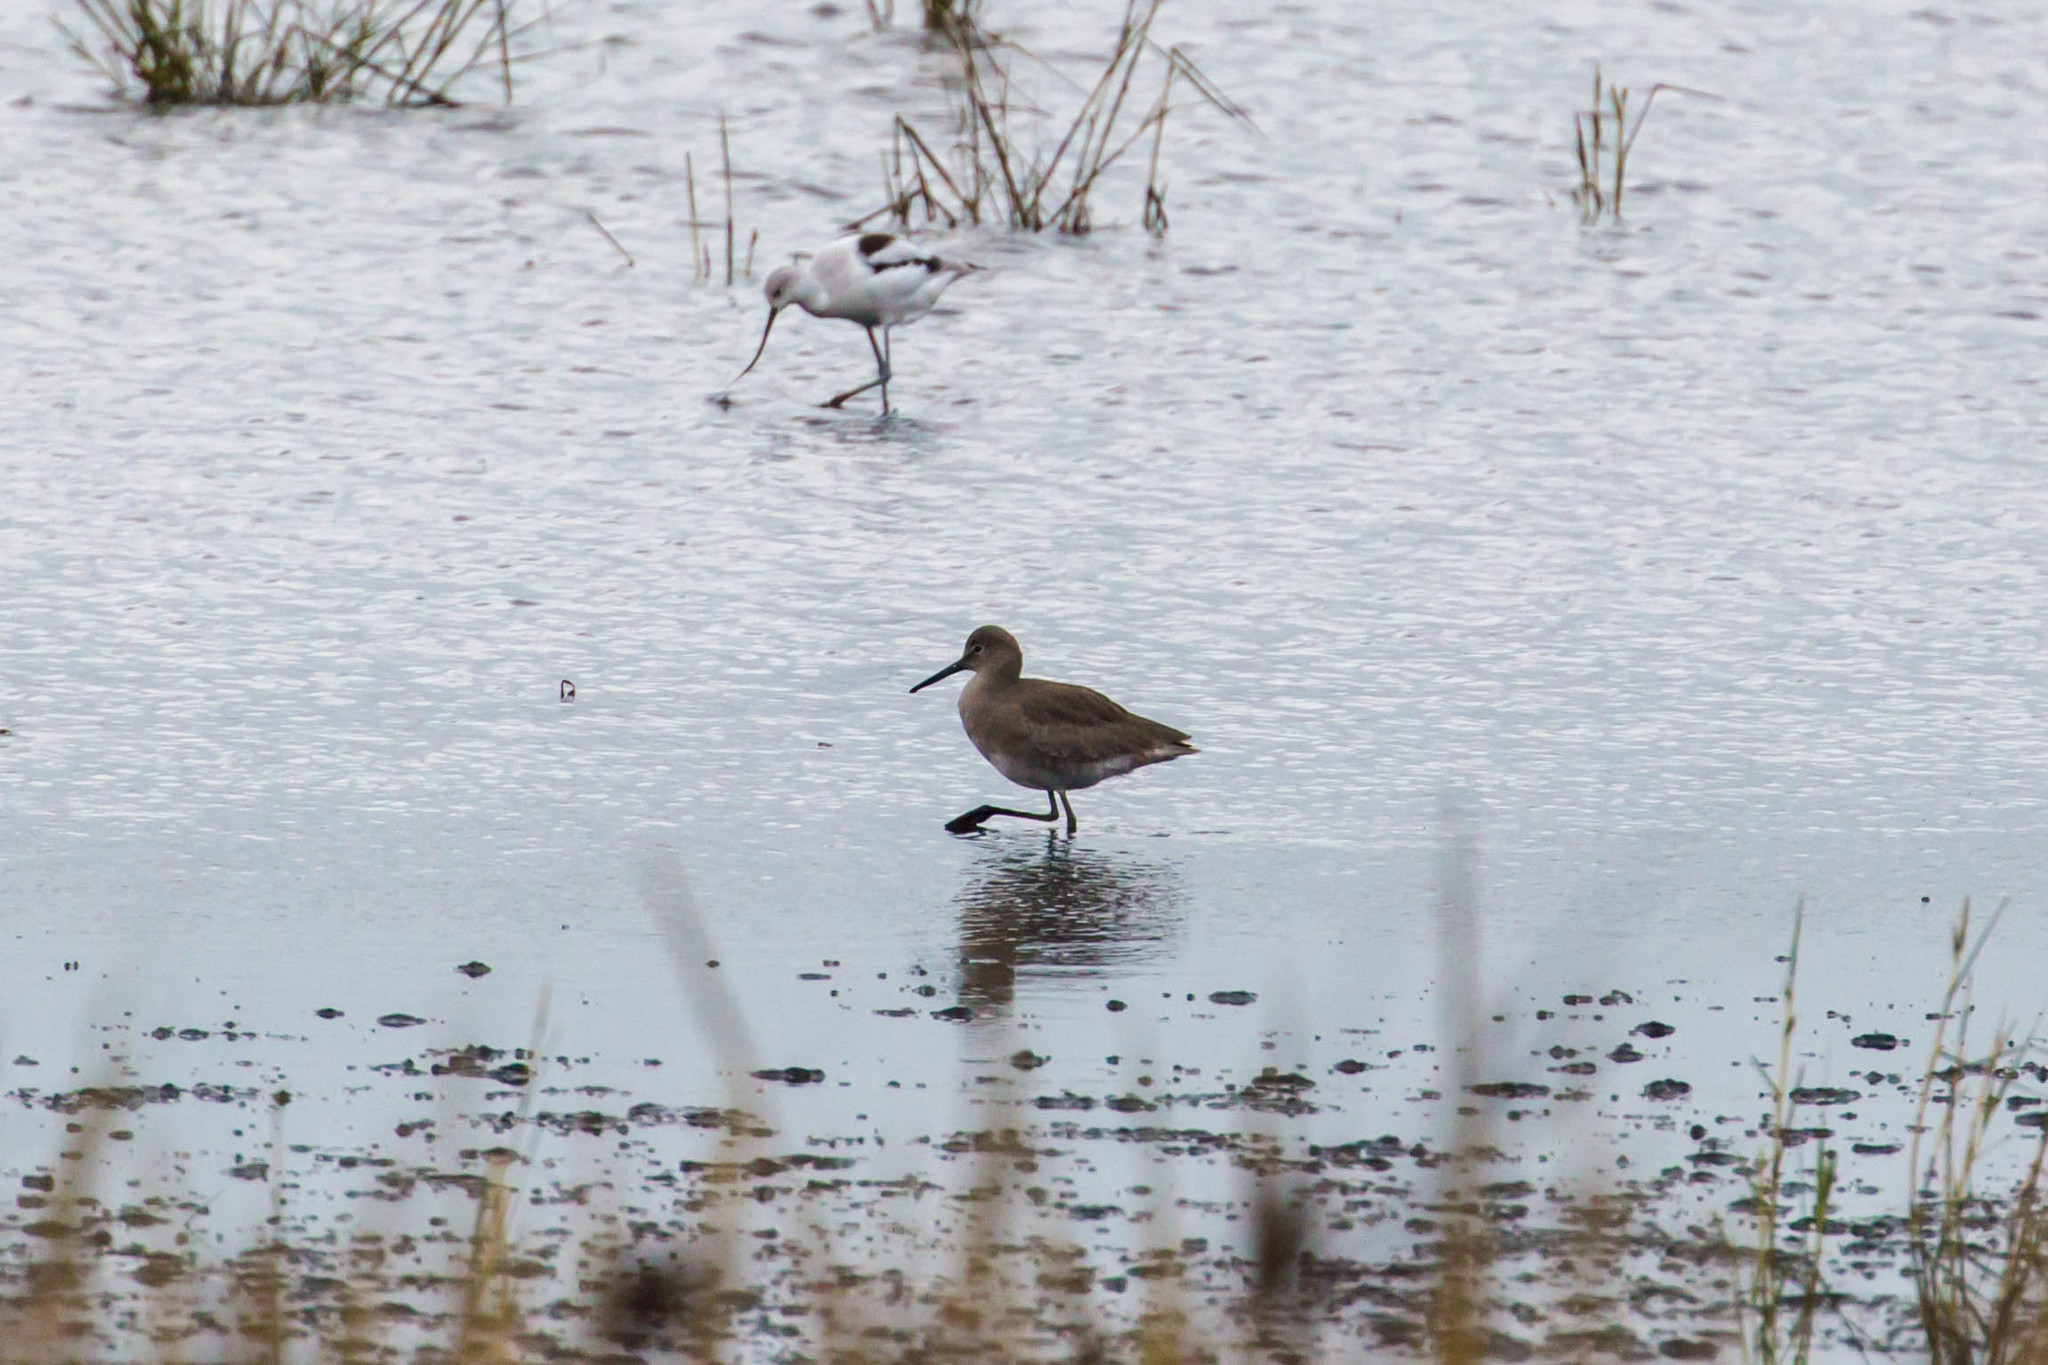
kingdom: Animalia
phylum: Chordata
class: Aves
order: Charadriiformes
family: Scolopacidae
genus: Tringa
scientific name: Tringa semipalmata
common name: Willet
